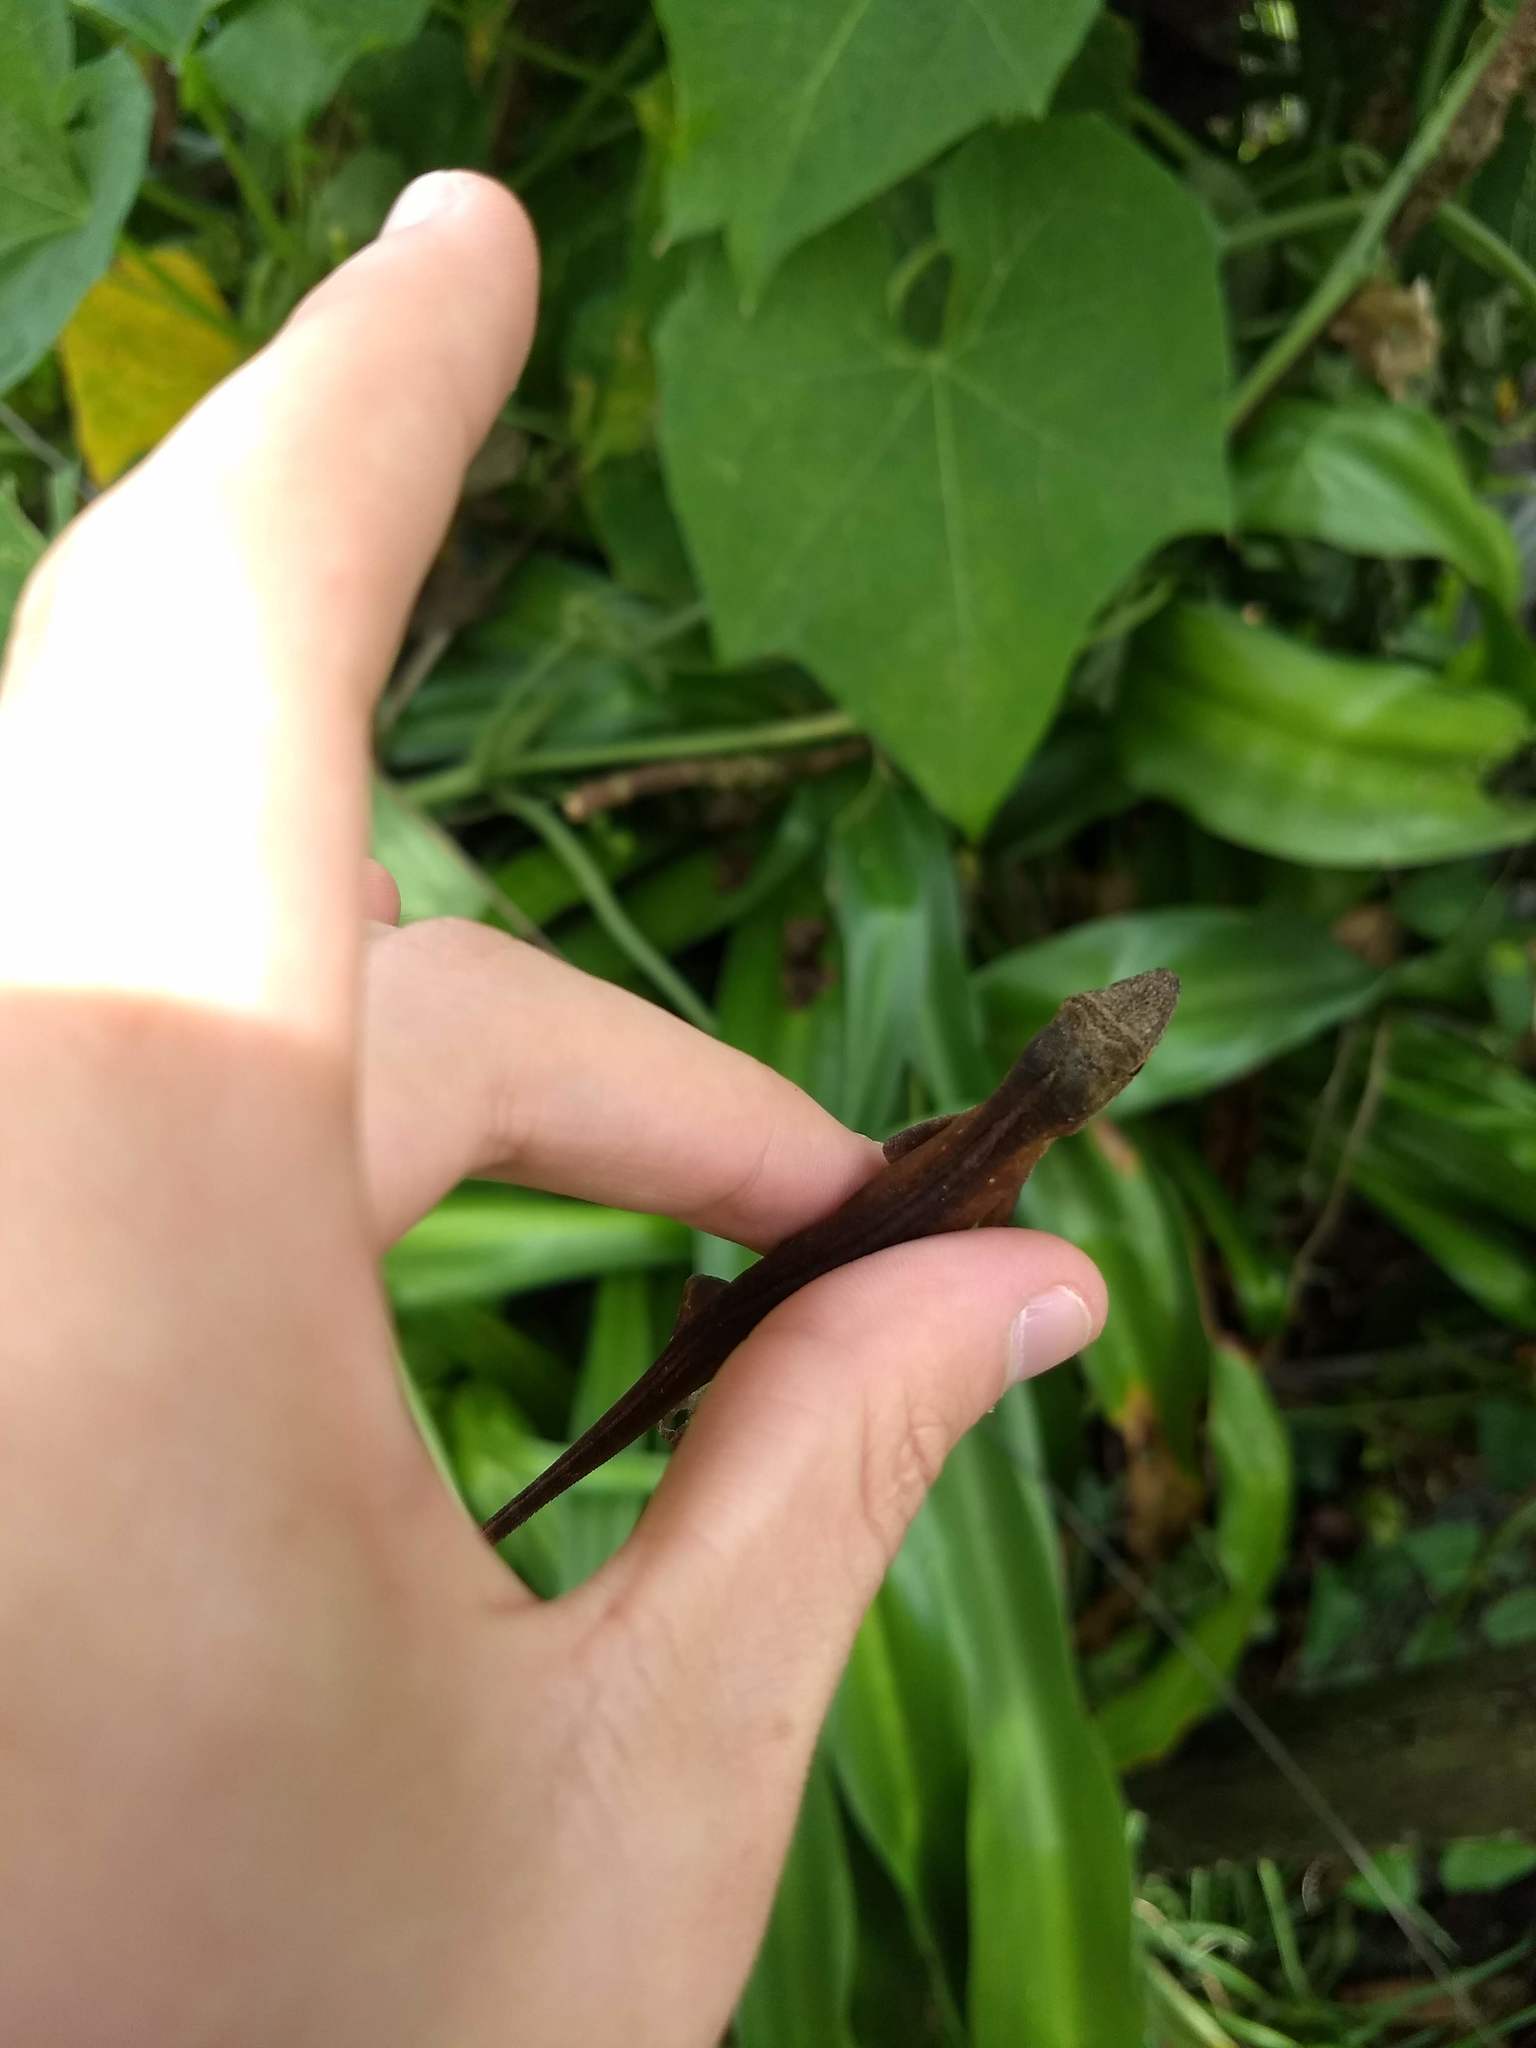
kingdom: Animalia
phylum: Chordata
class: Squamata
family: Dactyloidae
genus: Anolis
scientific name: Anolis mariarum
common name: Blemished anole
